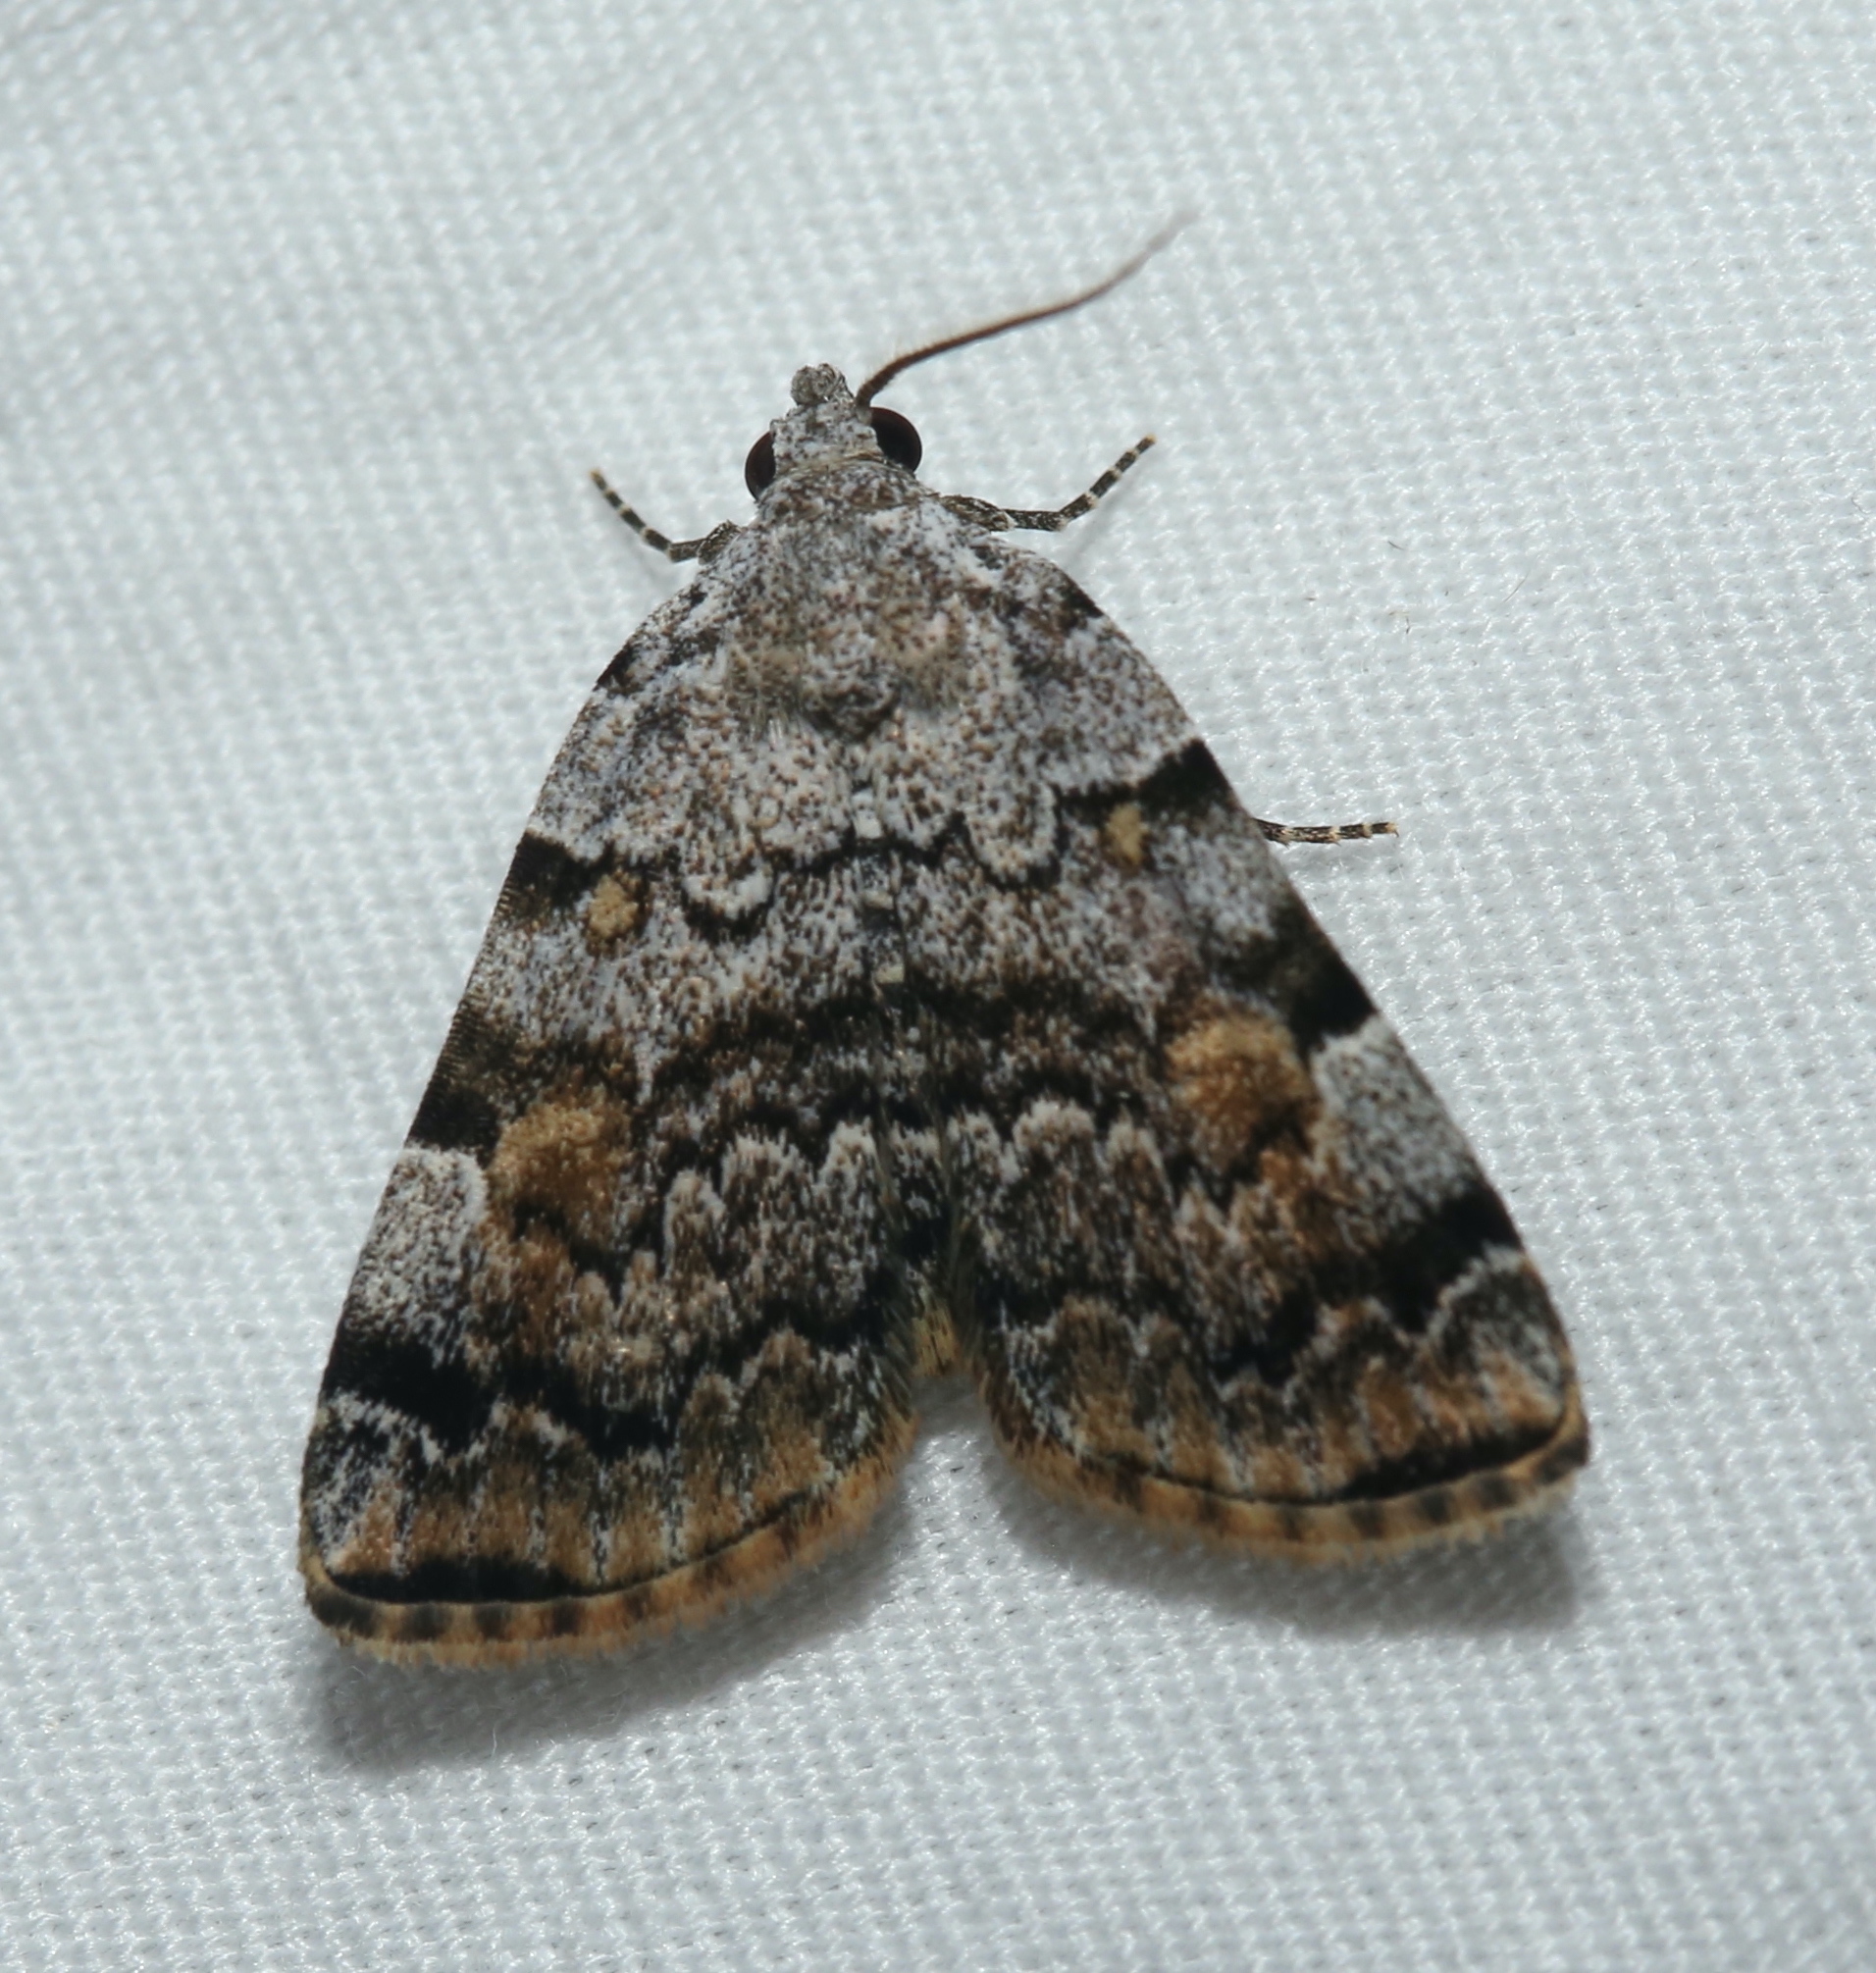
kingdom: Animalia
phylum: Arthropoda
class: Insecta
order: Lepidoptera
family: Erebidae
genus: Idia
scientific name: Idia americalis
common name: American idia moth
